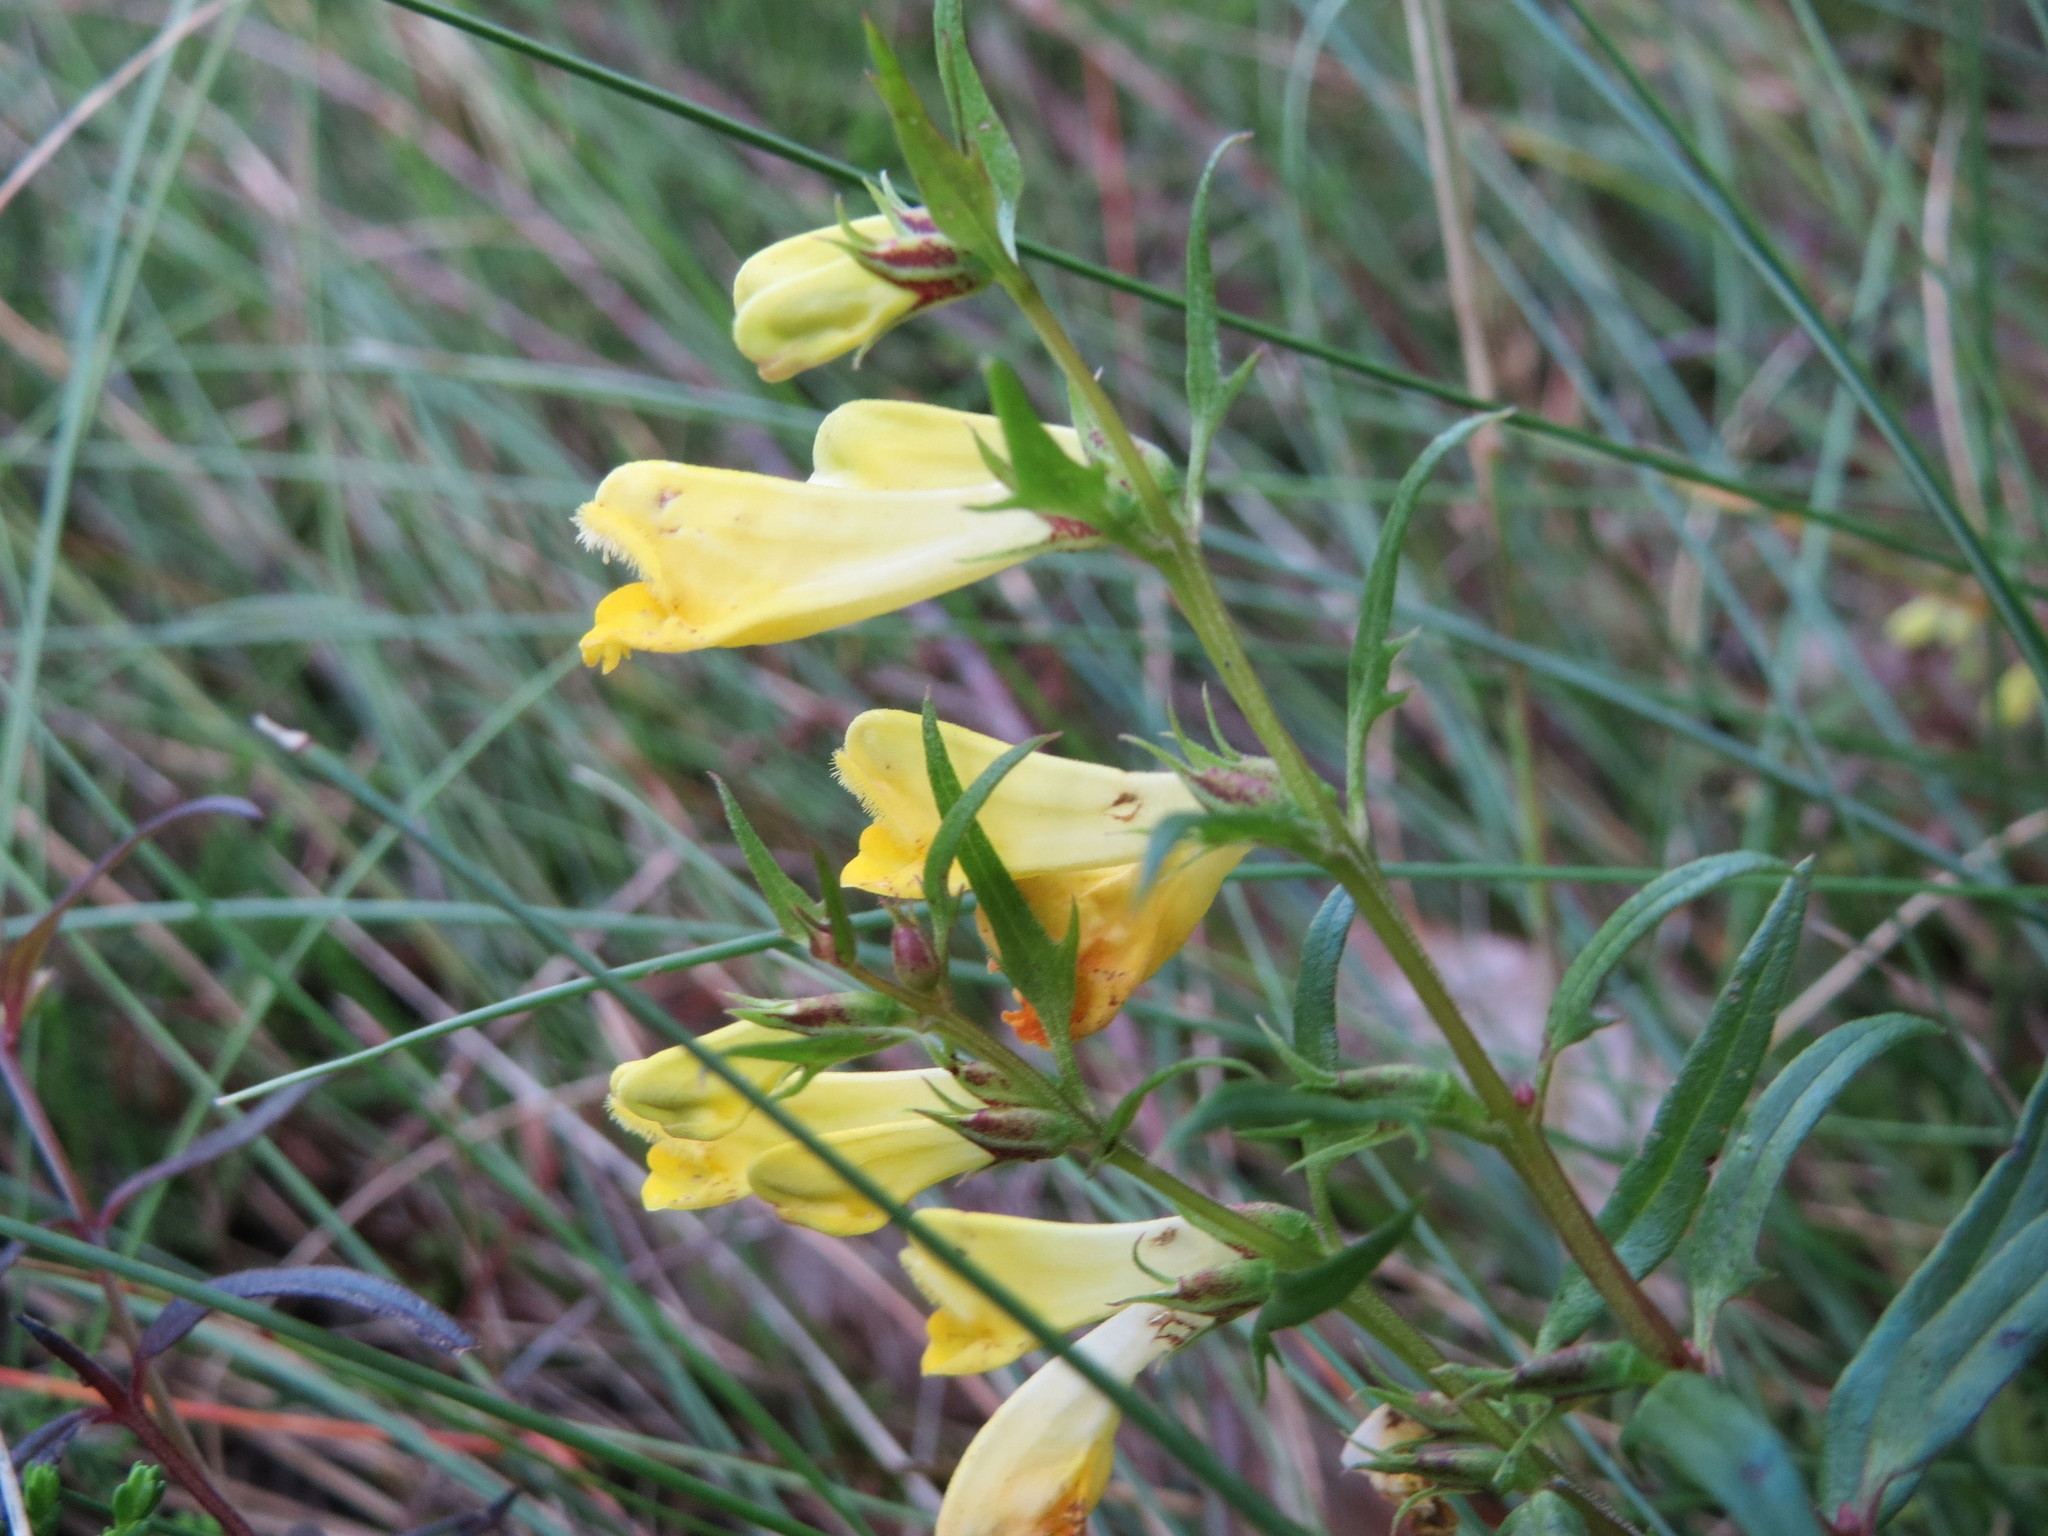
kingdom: Plantae
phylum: Tracheophyta
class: Magnoliopsida
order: Lamiales
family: Orobanchaceae
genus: Melampyrum
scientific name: Melampyrum pratense
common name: Common cow-wheat
